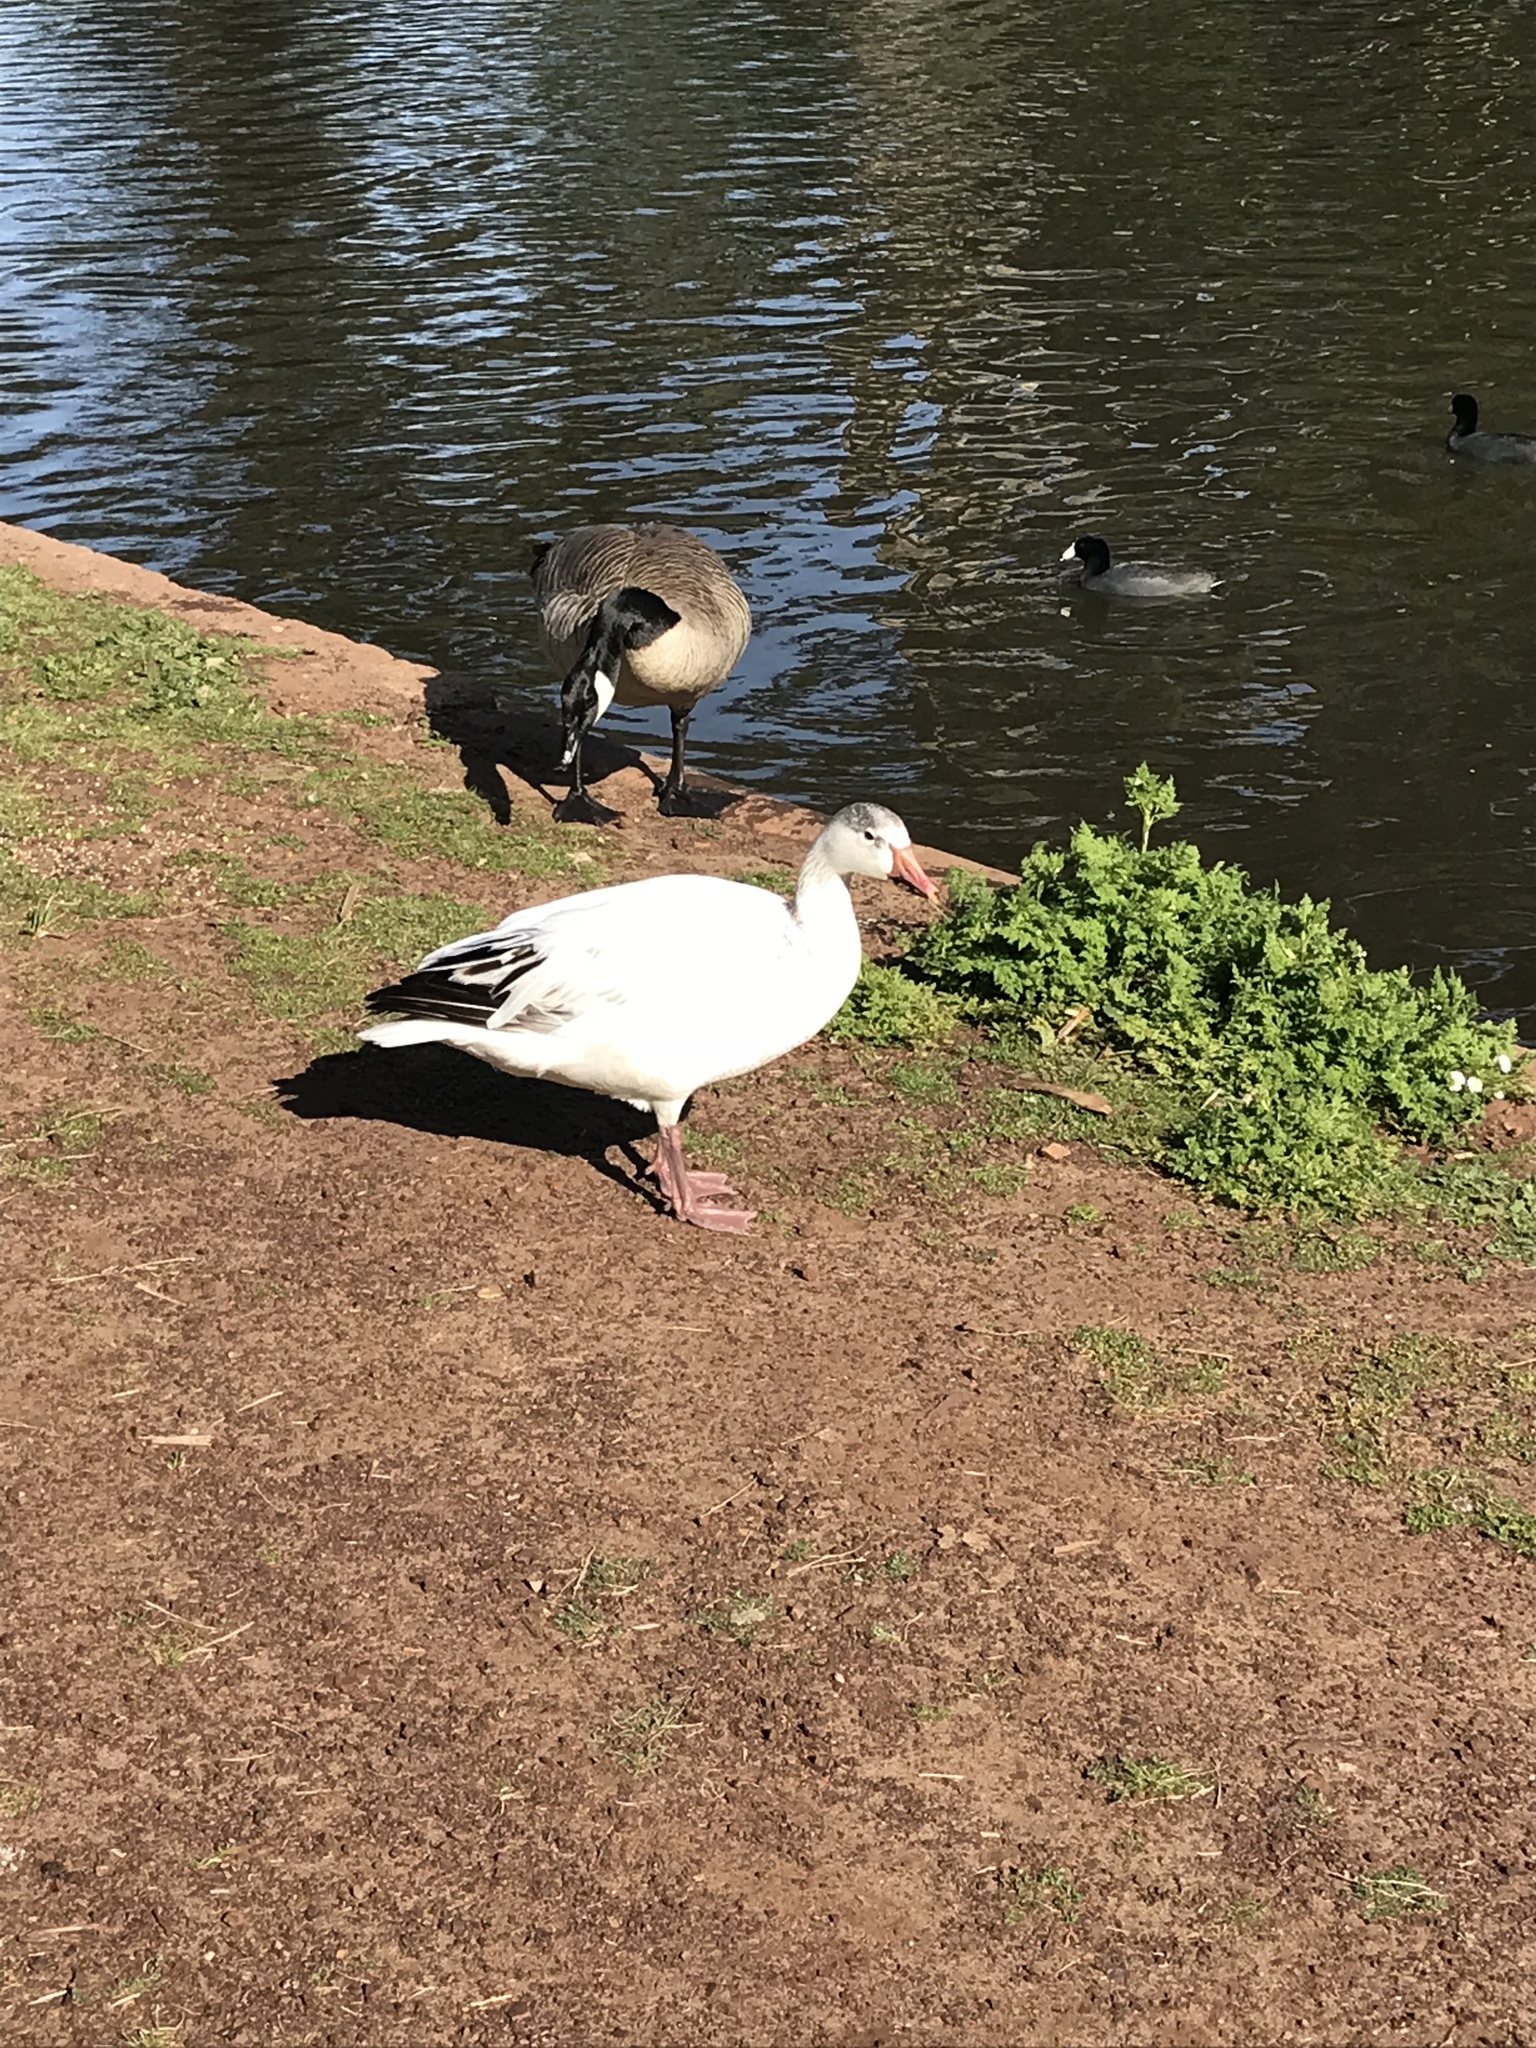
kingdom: Animalia
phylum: Chordata
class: Aves
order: Anseriformes
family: Anatidae
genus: Anser
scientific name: Anser caerulescens
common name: Snow goose
